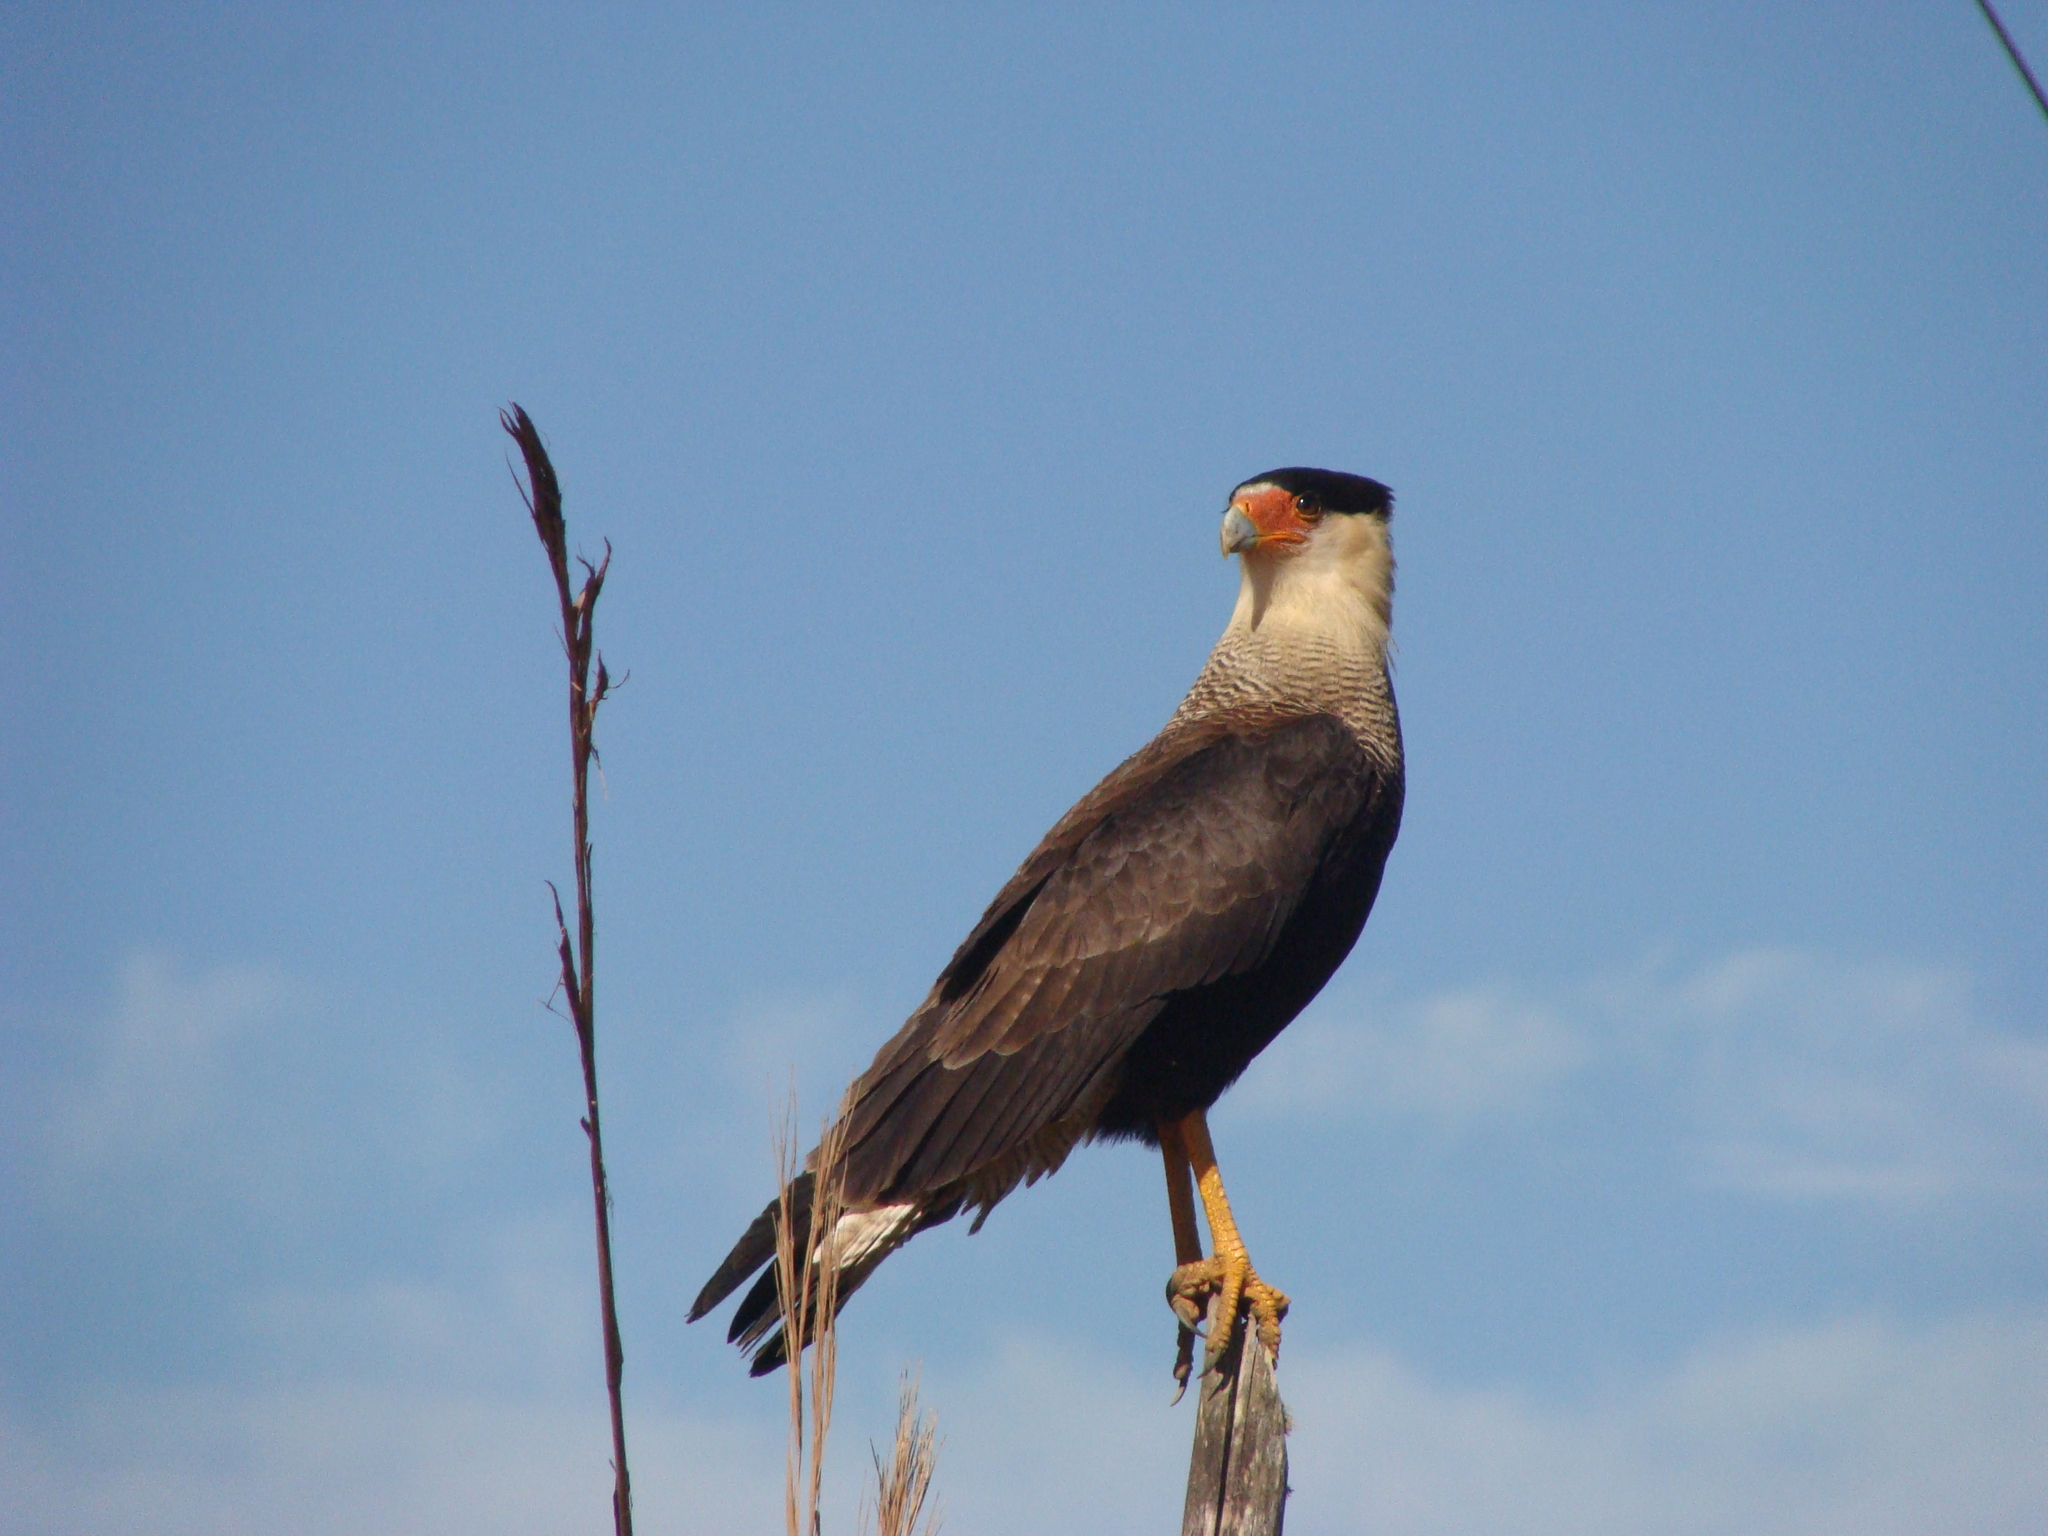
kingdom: Animalia
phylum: Chordata
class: Aves
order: Falconiformes
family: Falconidae
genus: Caracara
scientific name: Caracara plancus
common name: Southern caracara
